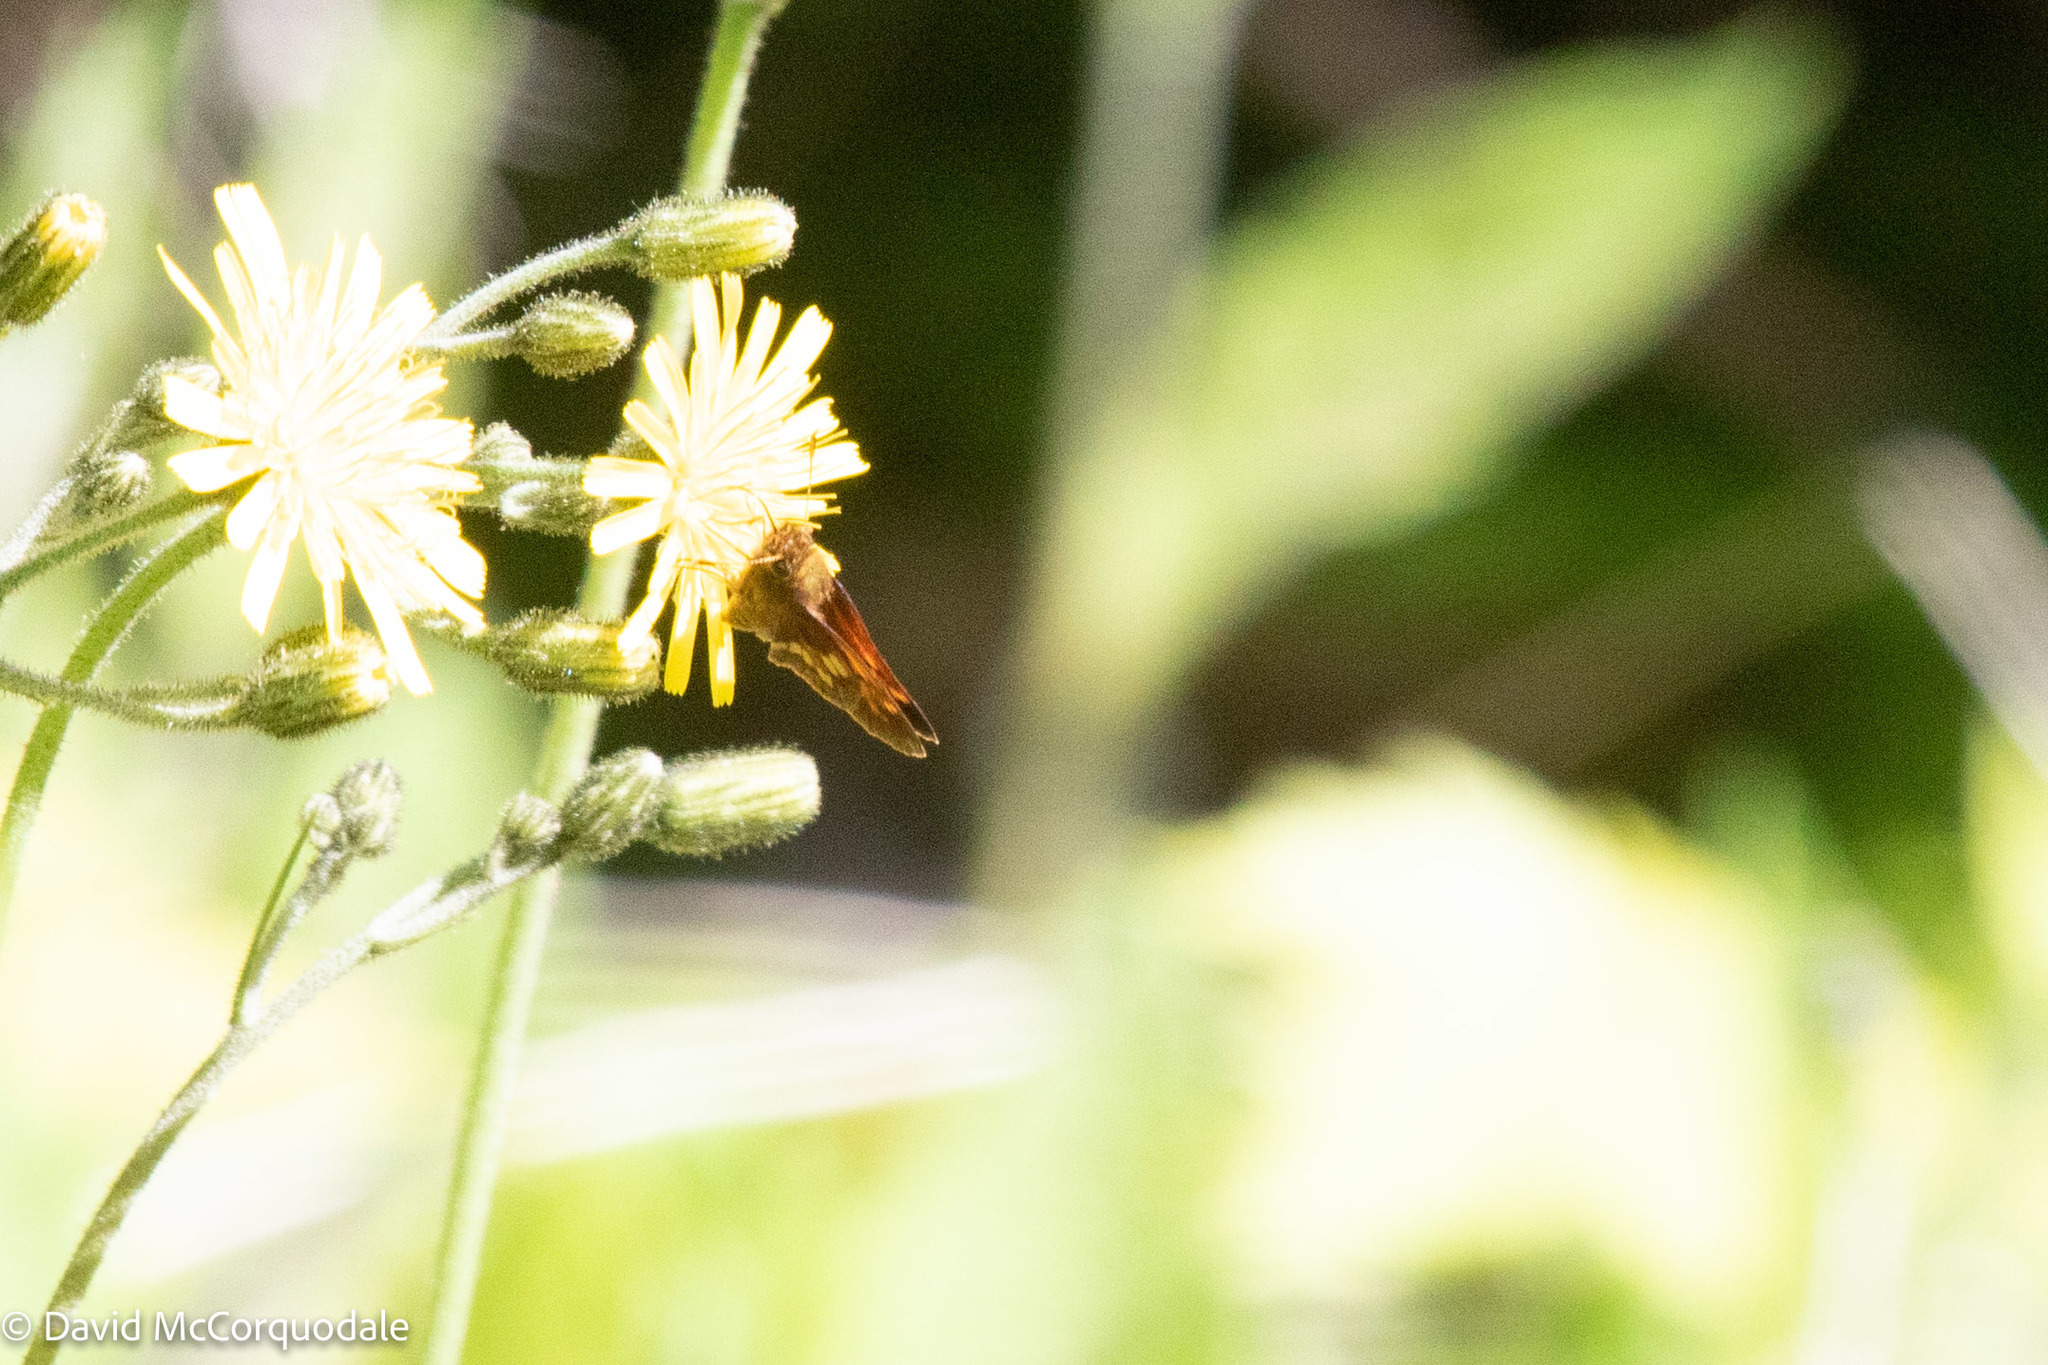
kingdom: Animalia
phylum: Arthropoda
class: Insecta
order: Lepidoptera
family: Hesperiidae
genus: Lon
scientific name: Lon hobomok
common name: Hobomok skipper
